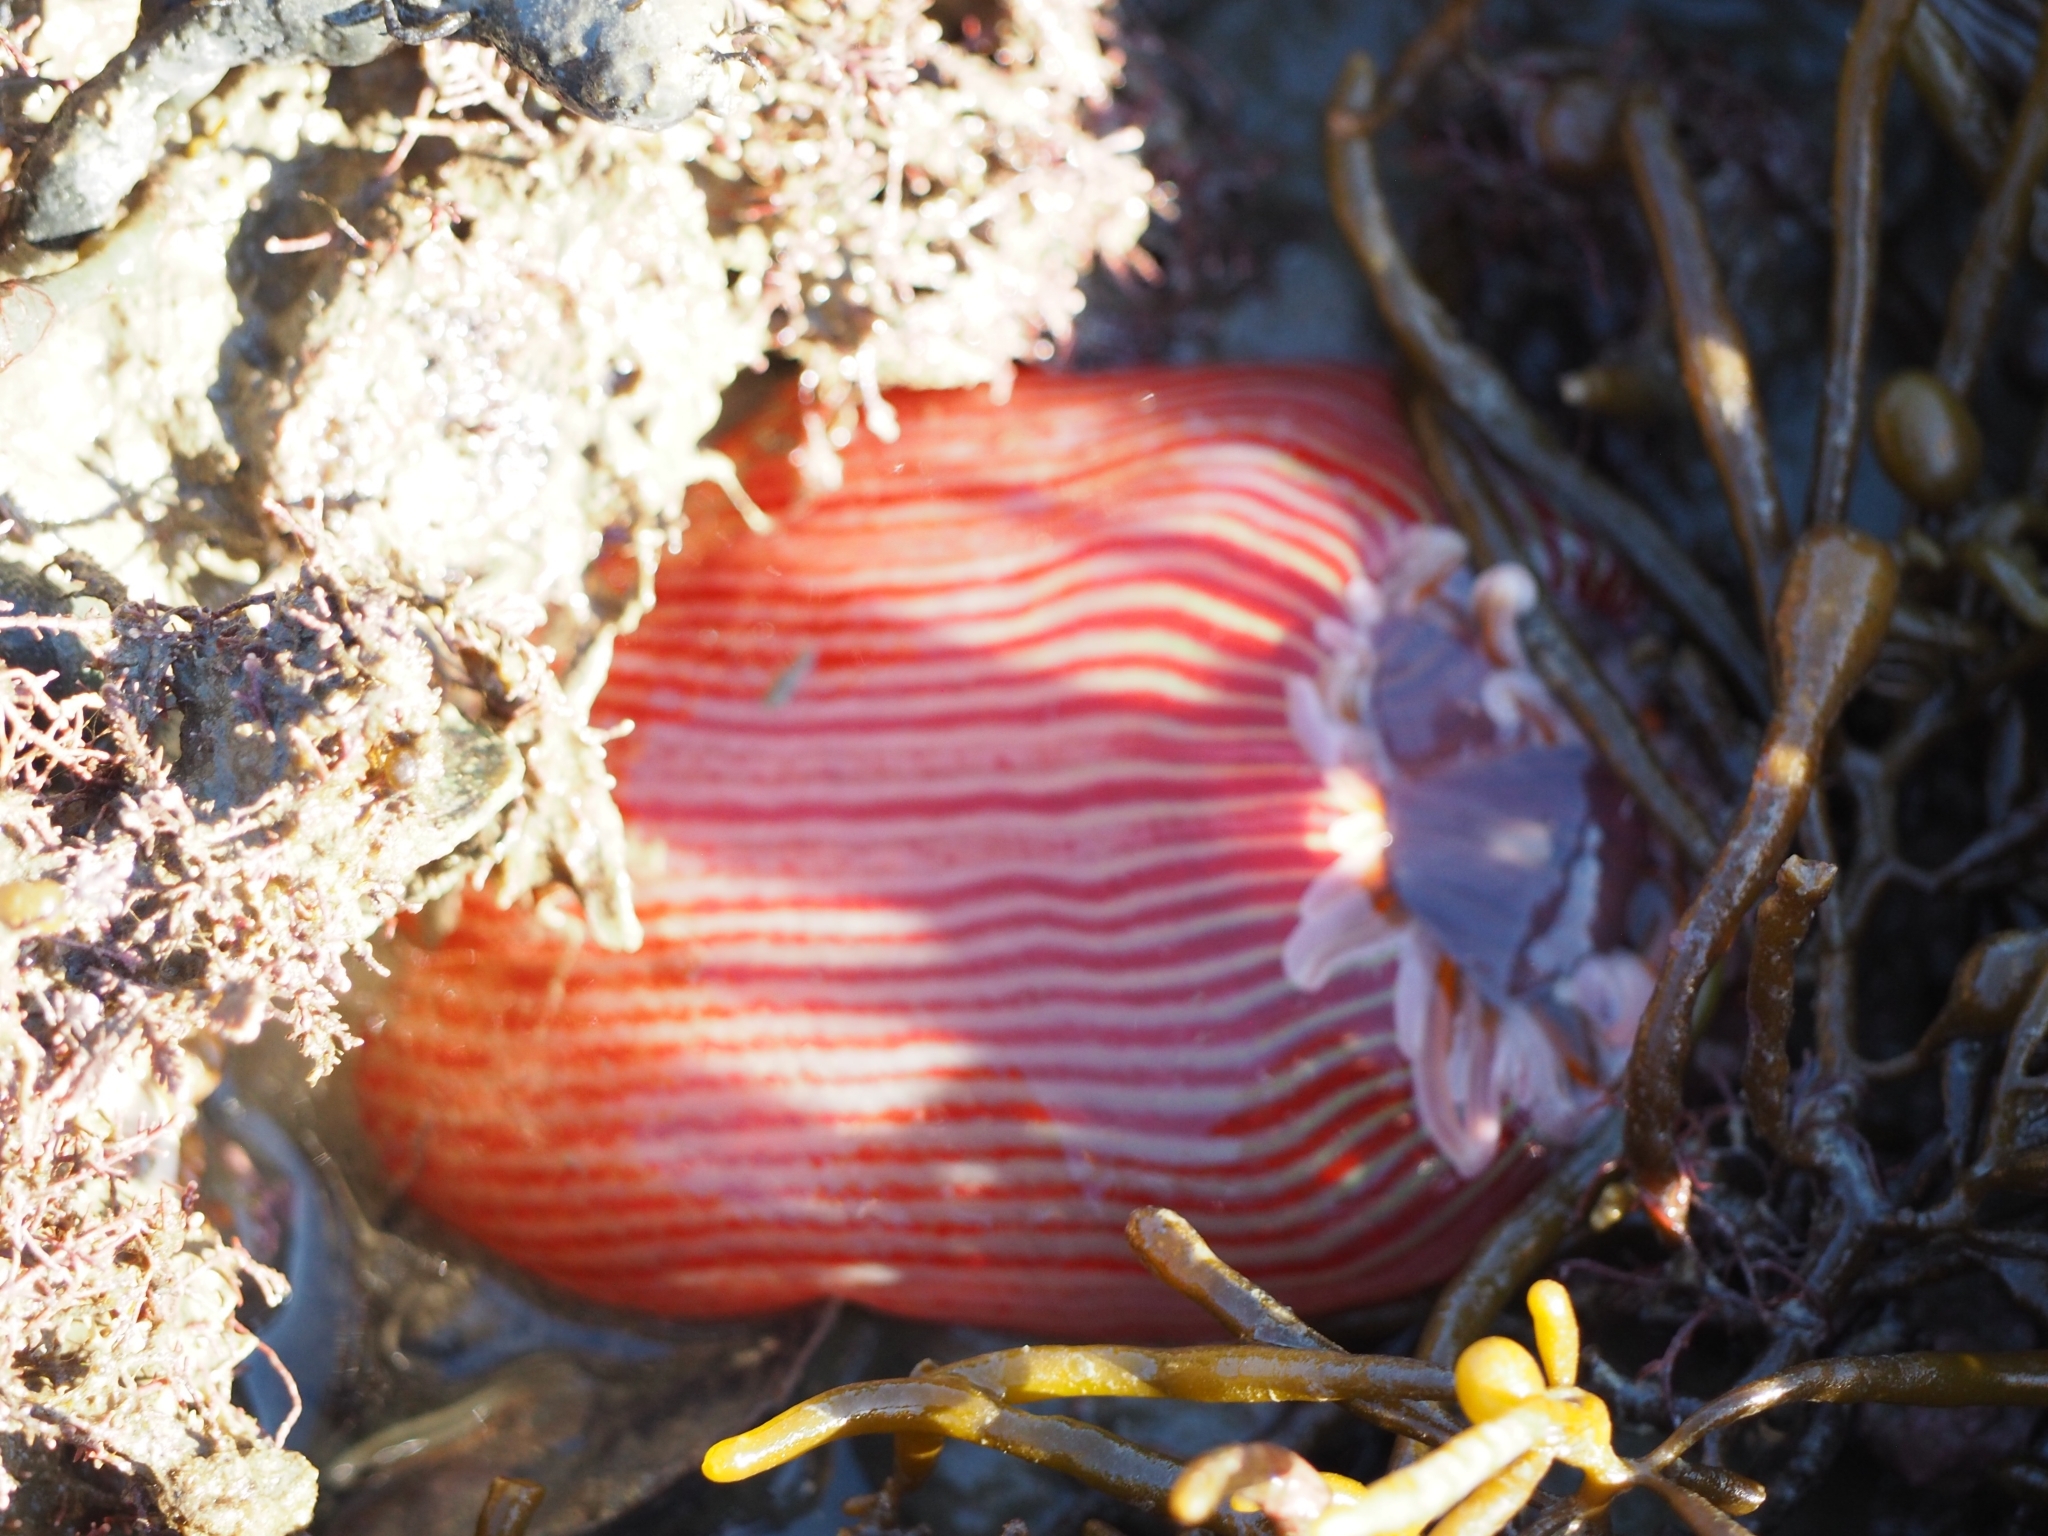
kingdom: Animalia
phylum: Cnidaria
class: Anthozoa
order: Actiniaria
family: Actiniidae
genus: Epiactis
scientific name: Epiactis thompsoni
